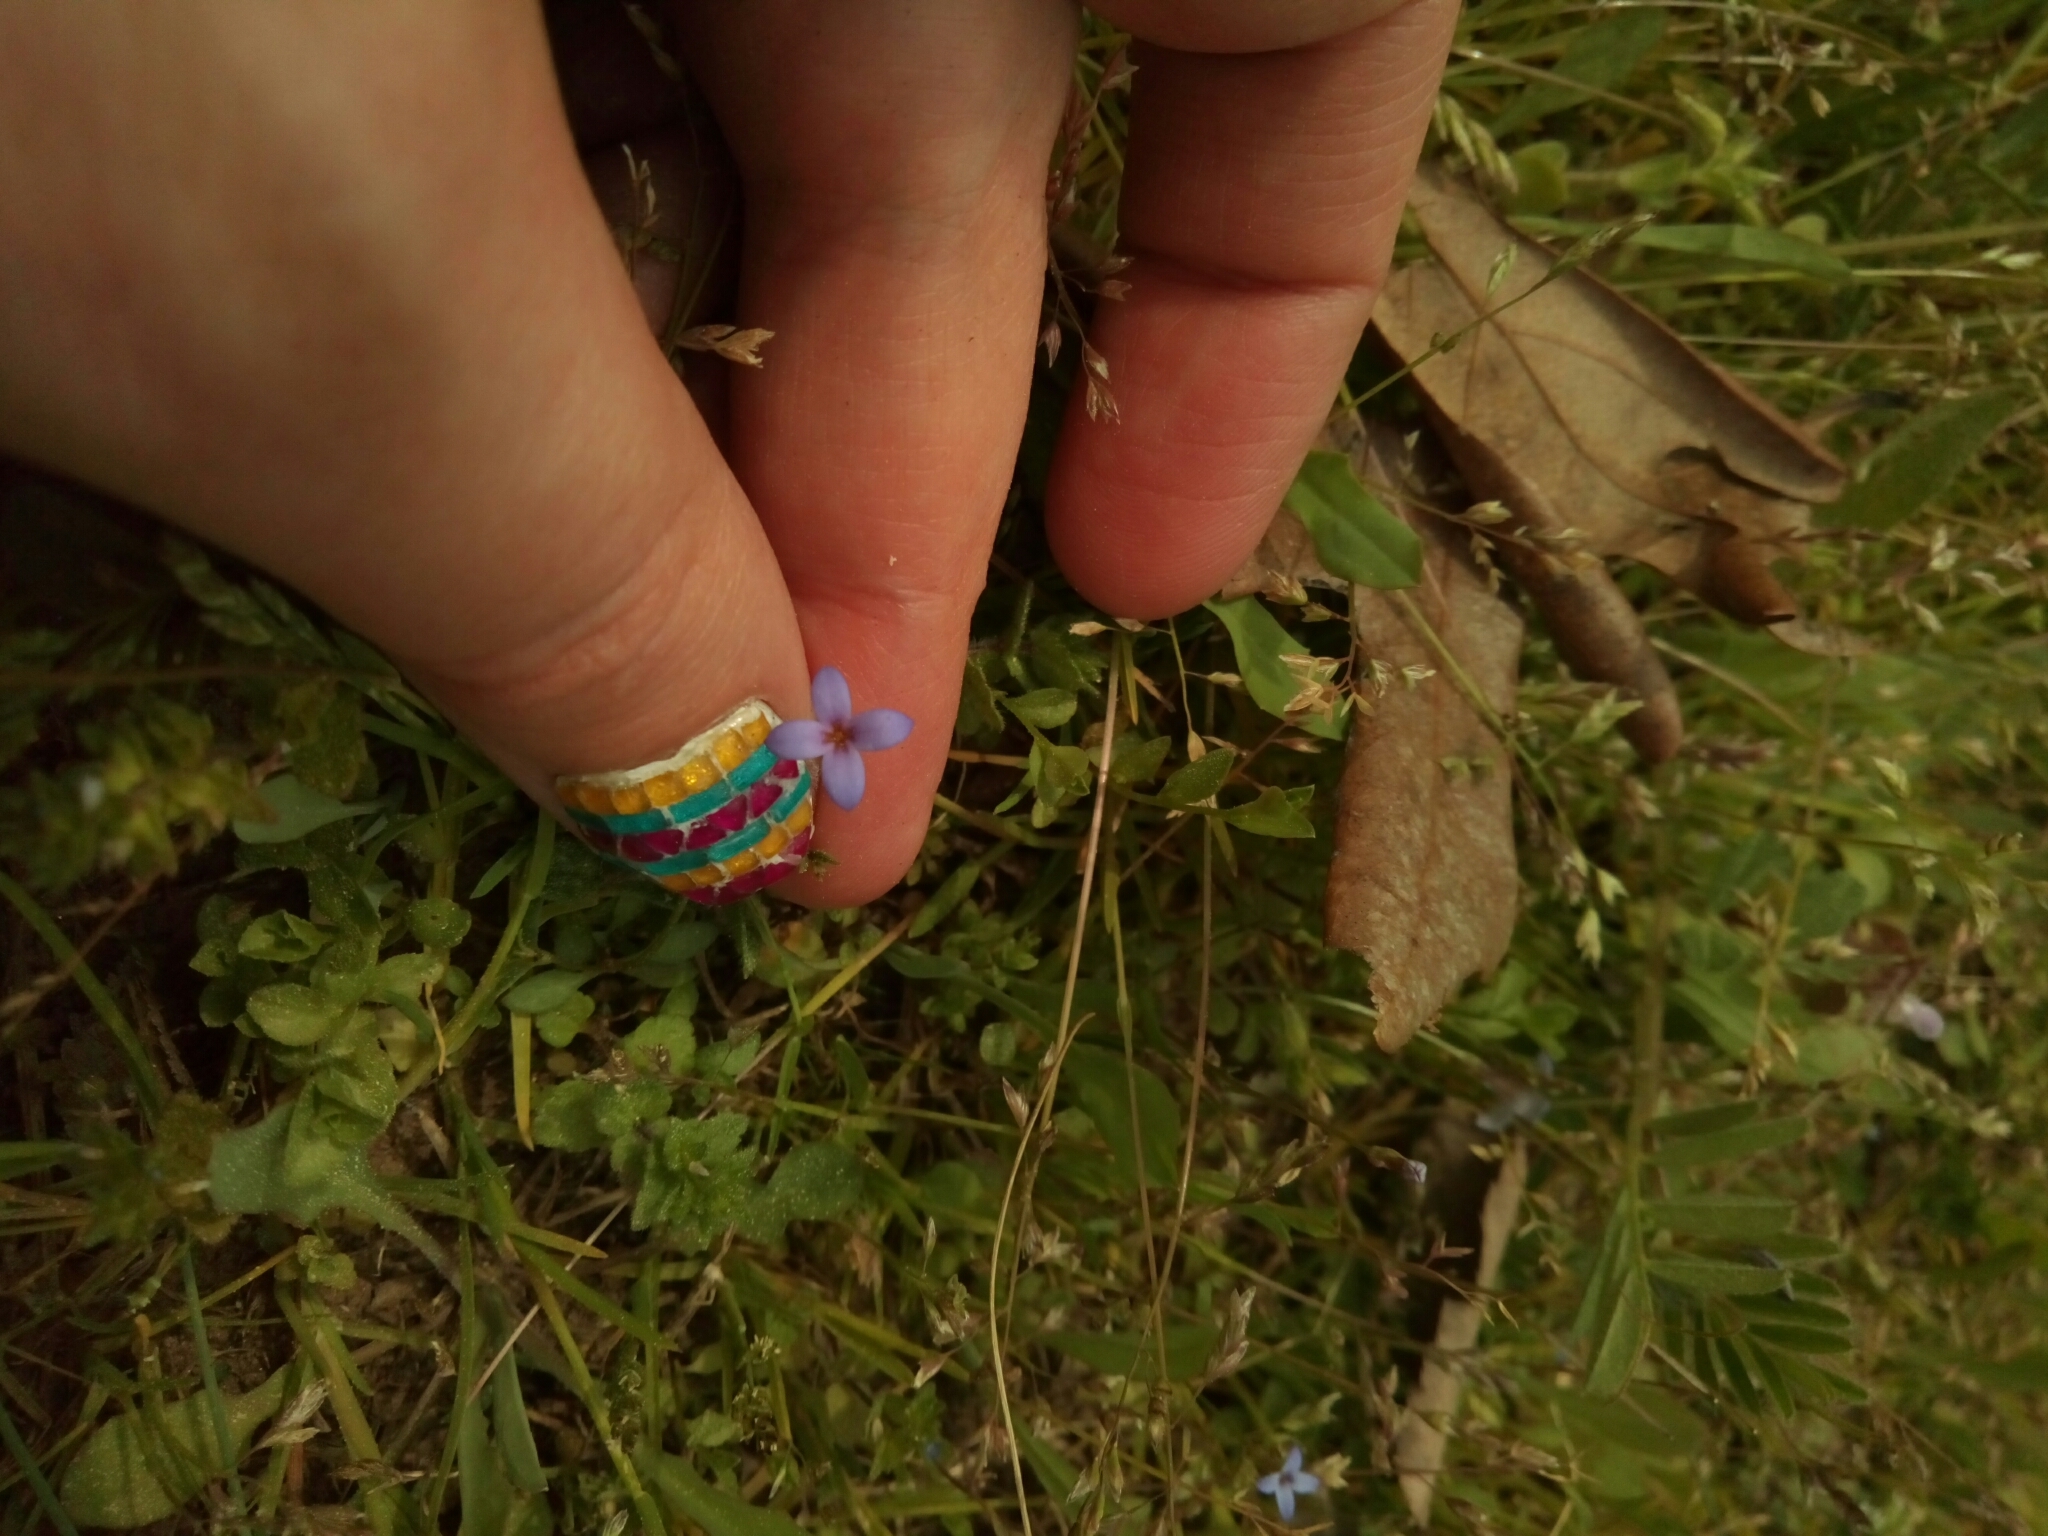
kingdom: Plantae
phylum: Tracheophyta
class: Magnoliopsida
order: Gentianales
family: Rubiaceae
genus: Houstonia
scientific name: Houstonia pusilla
